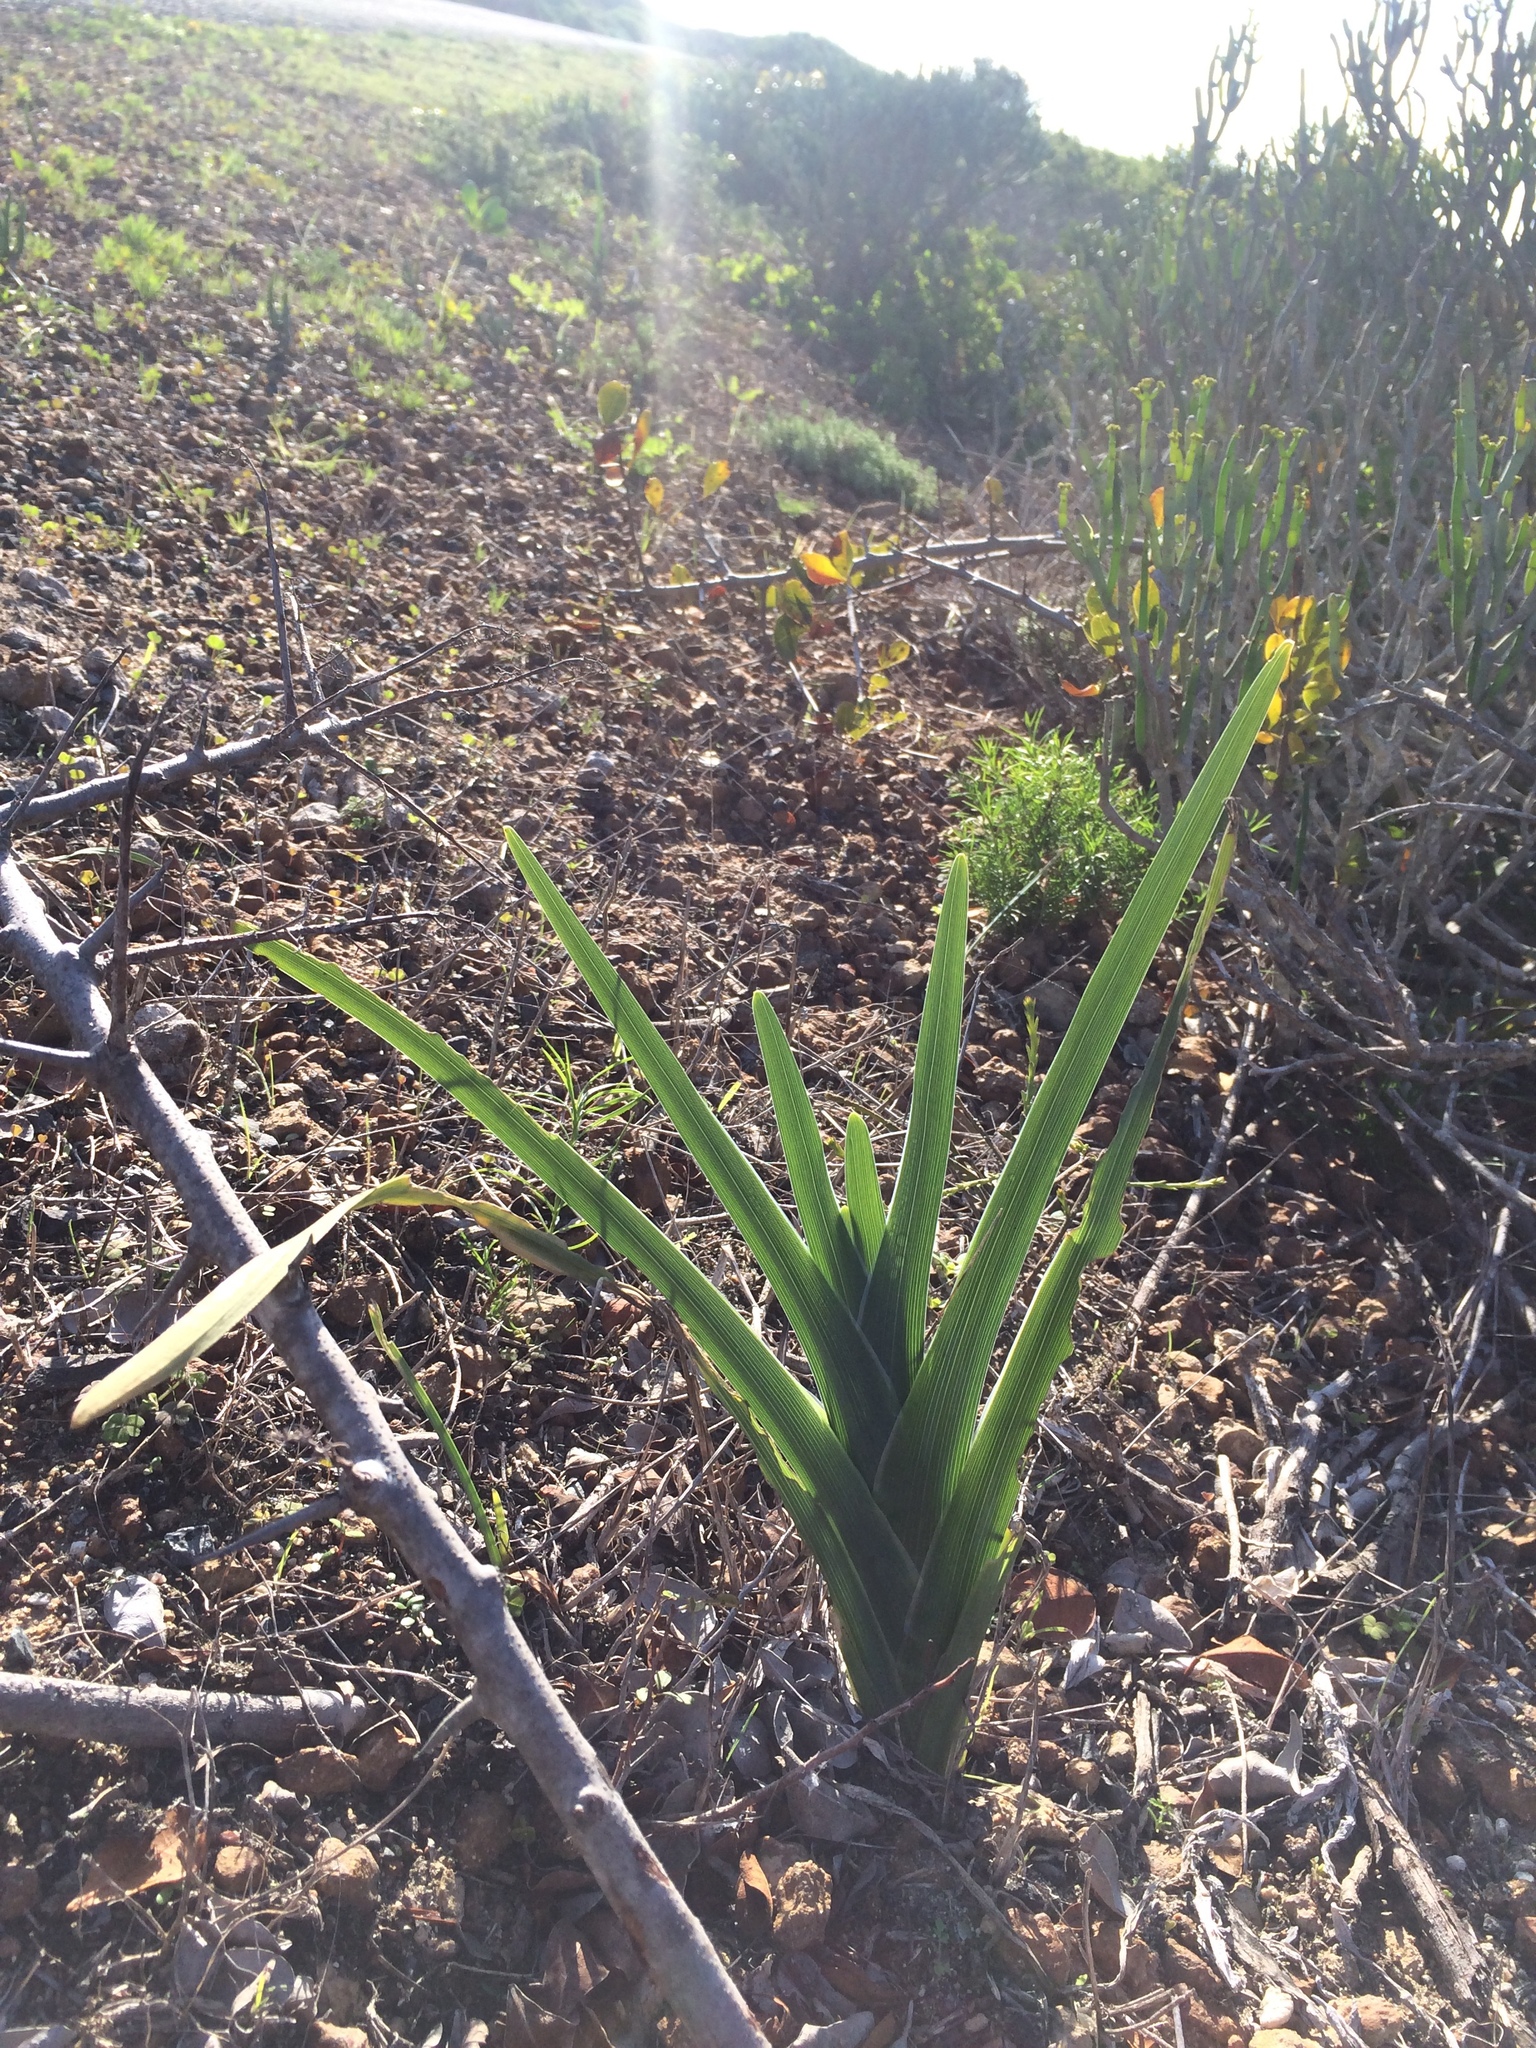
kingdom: Plantae
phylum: Tracheophyta
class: Liliopsida
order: Asparagales
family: Iridaceae
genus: Ferraria
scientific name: Ferraria crispa
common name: Black-flag
